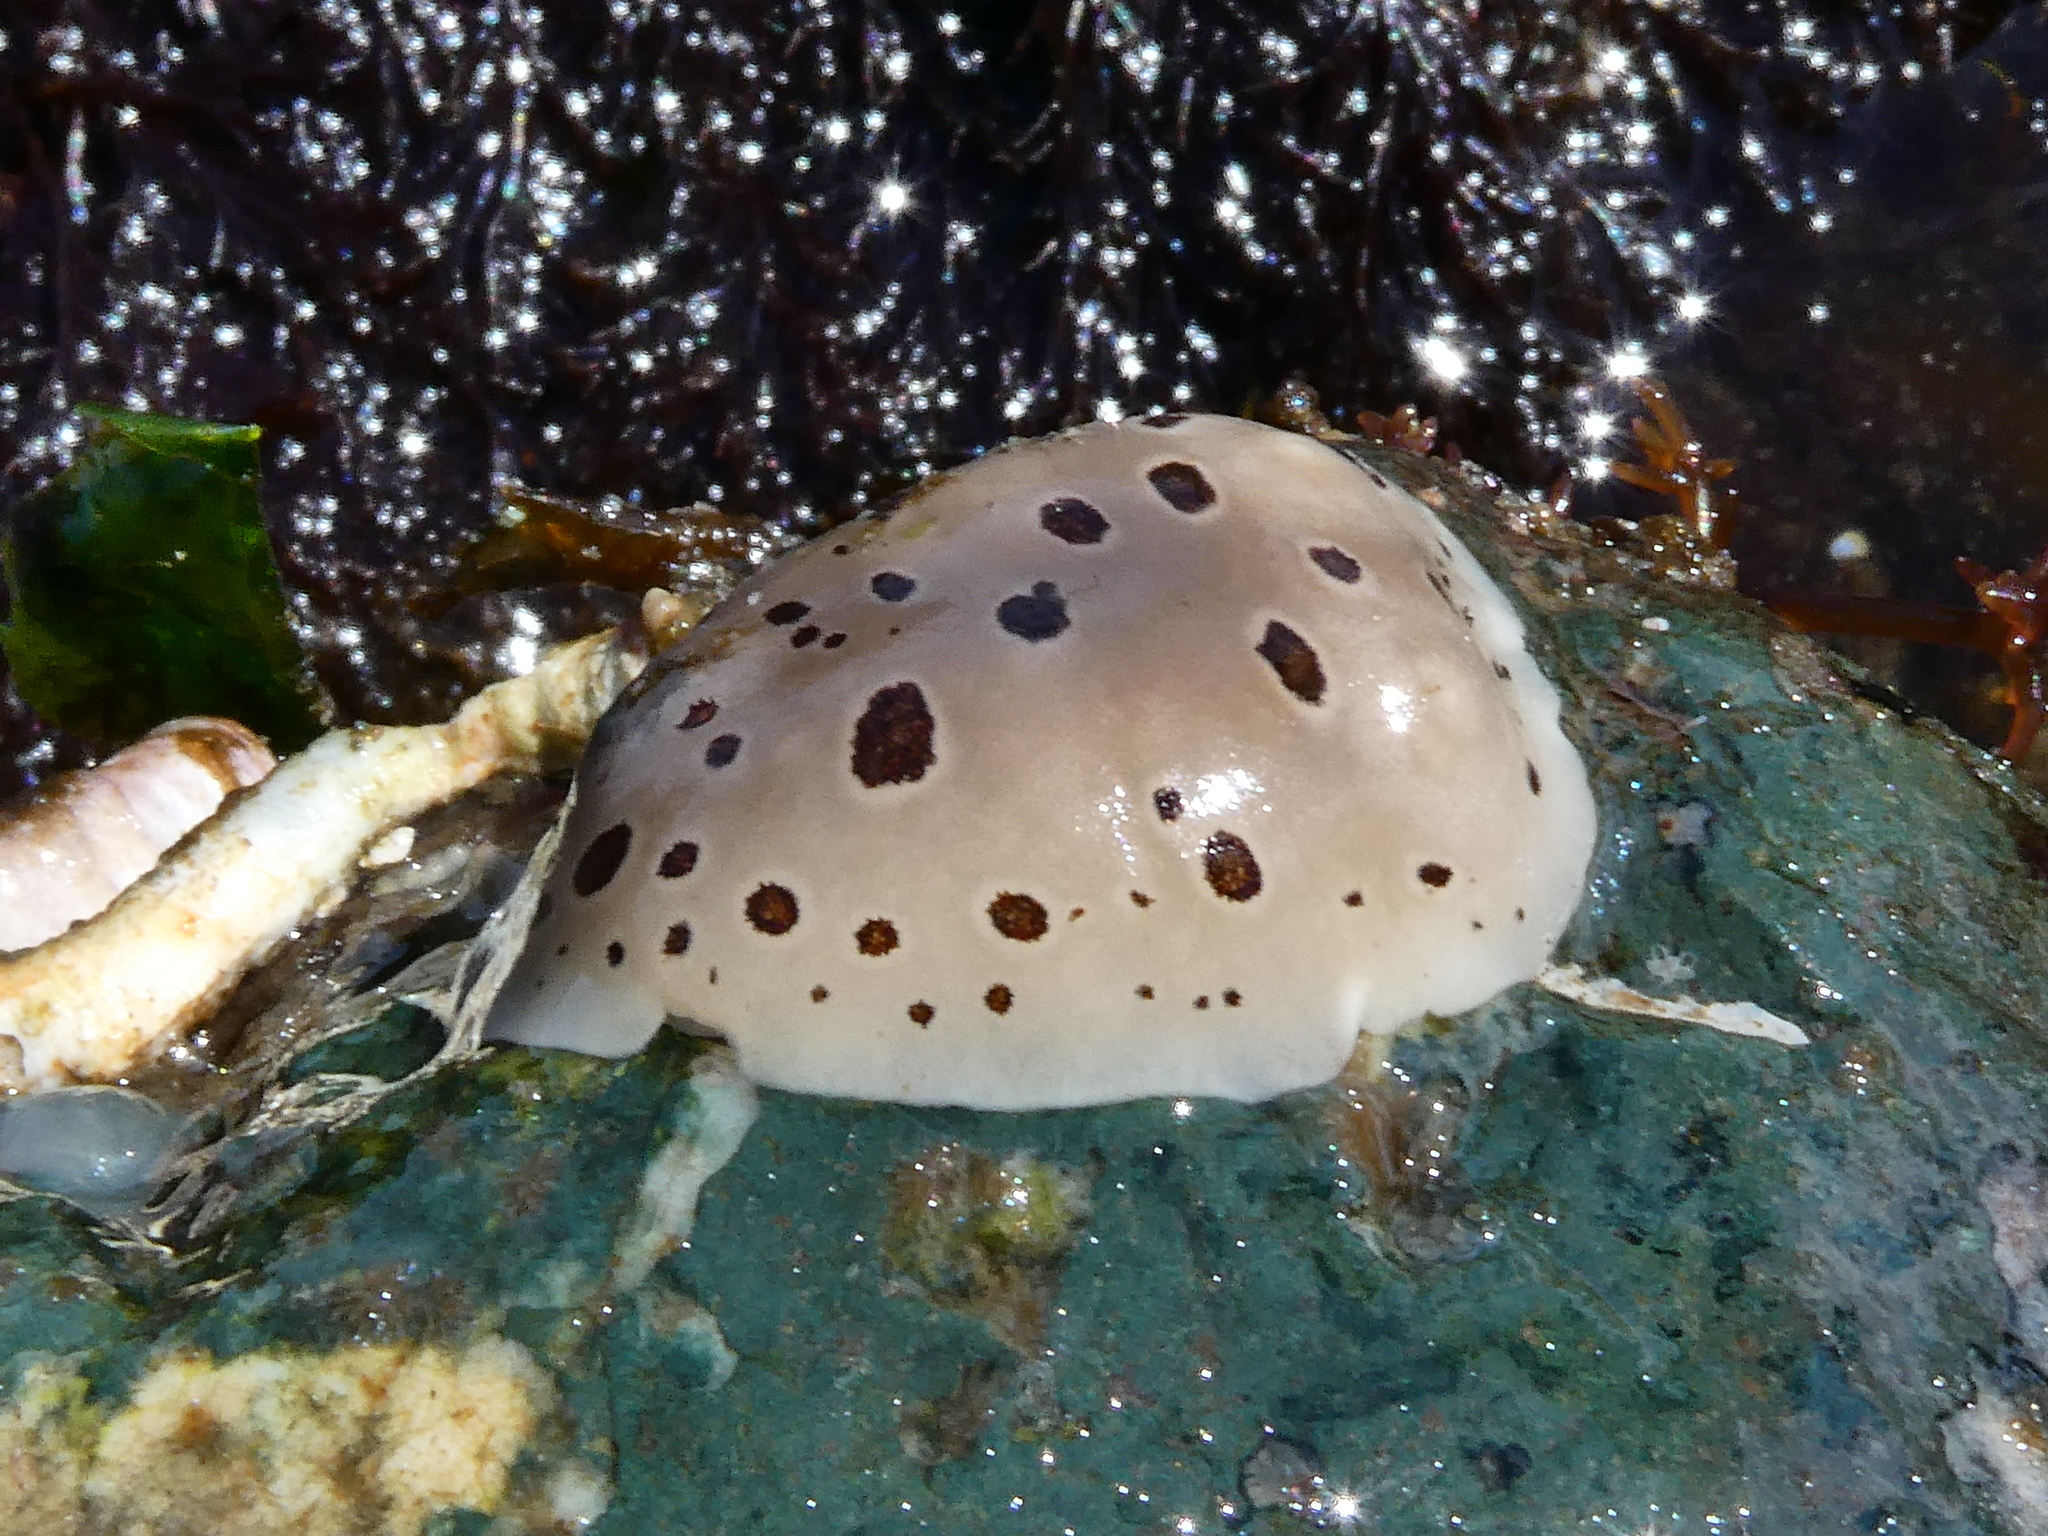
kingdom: Animalia
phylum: Mollusca
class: Gastropoda
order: Nudibranchia
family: Discodorididae
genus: Diaulula
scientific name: Diaulula odonoghuei
